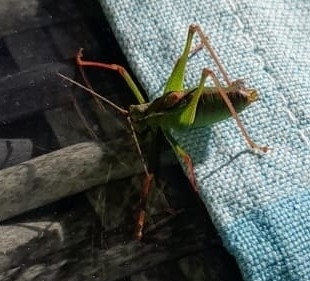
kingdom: Animalia
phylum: Arthropoda
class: Insecta
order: Orthoptera
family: Tettigoniidae
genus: Leptophyes
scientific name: Leptophyes punctatissima
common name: Speckled bush-cricket
